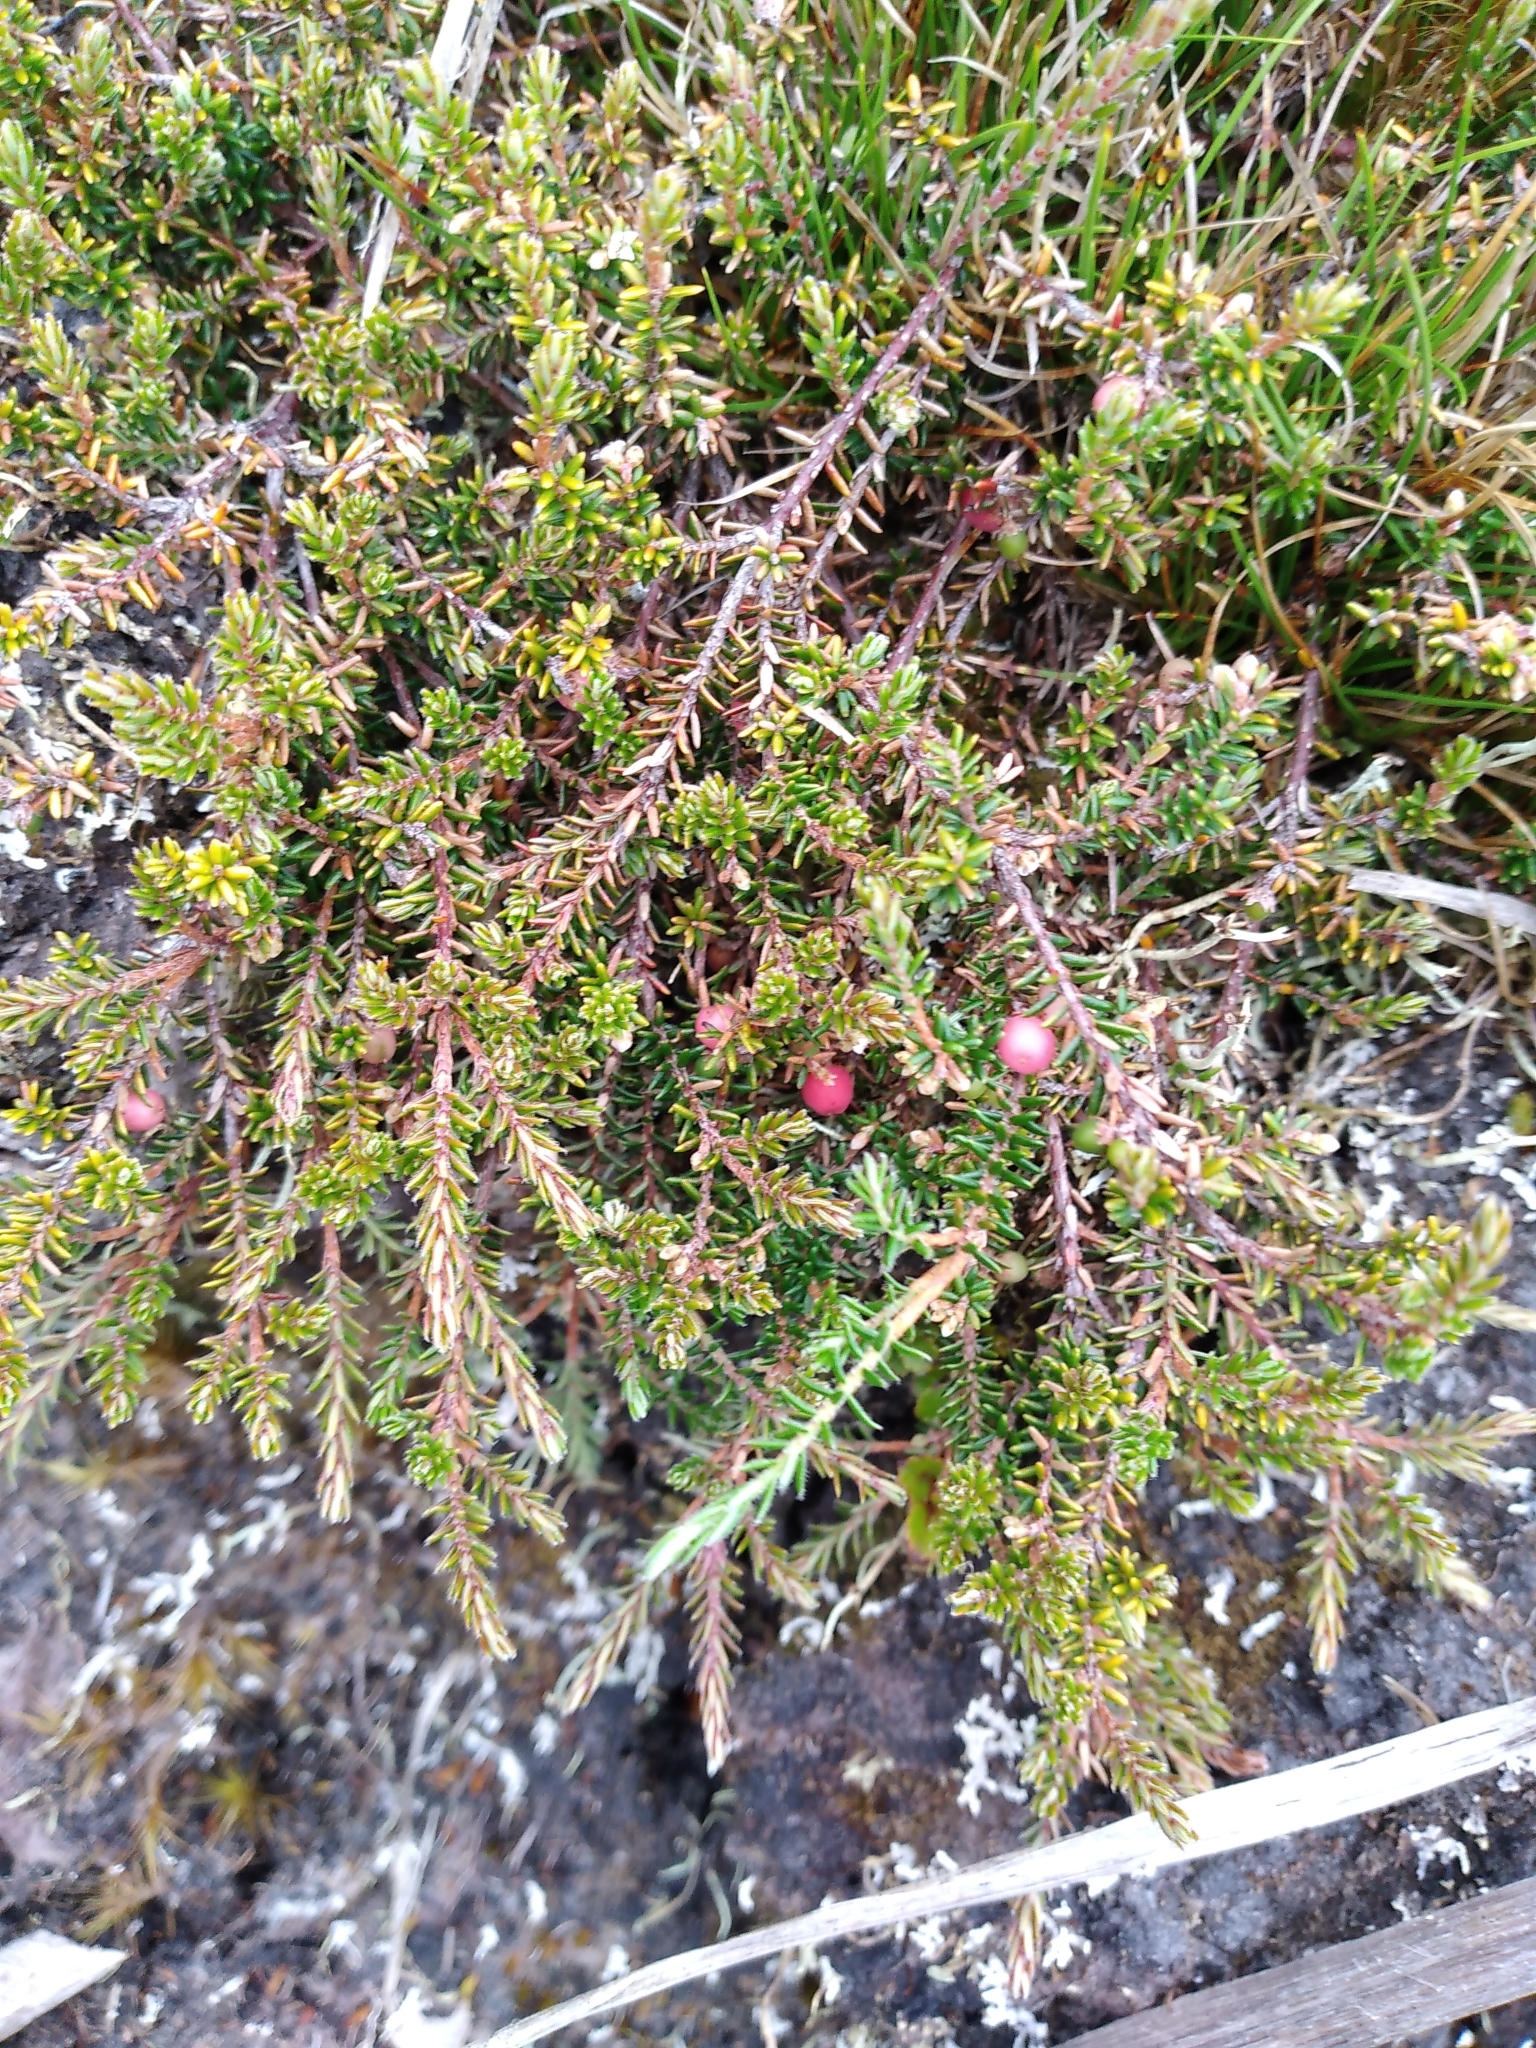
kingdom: Plantae
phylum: Tracheophyta
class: Magnoliopsida
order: Ericales
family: Ericaceae
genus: Androstoma
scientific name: Androstoma empetrifolia
